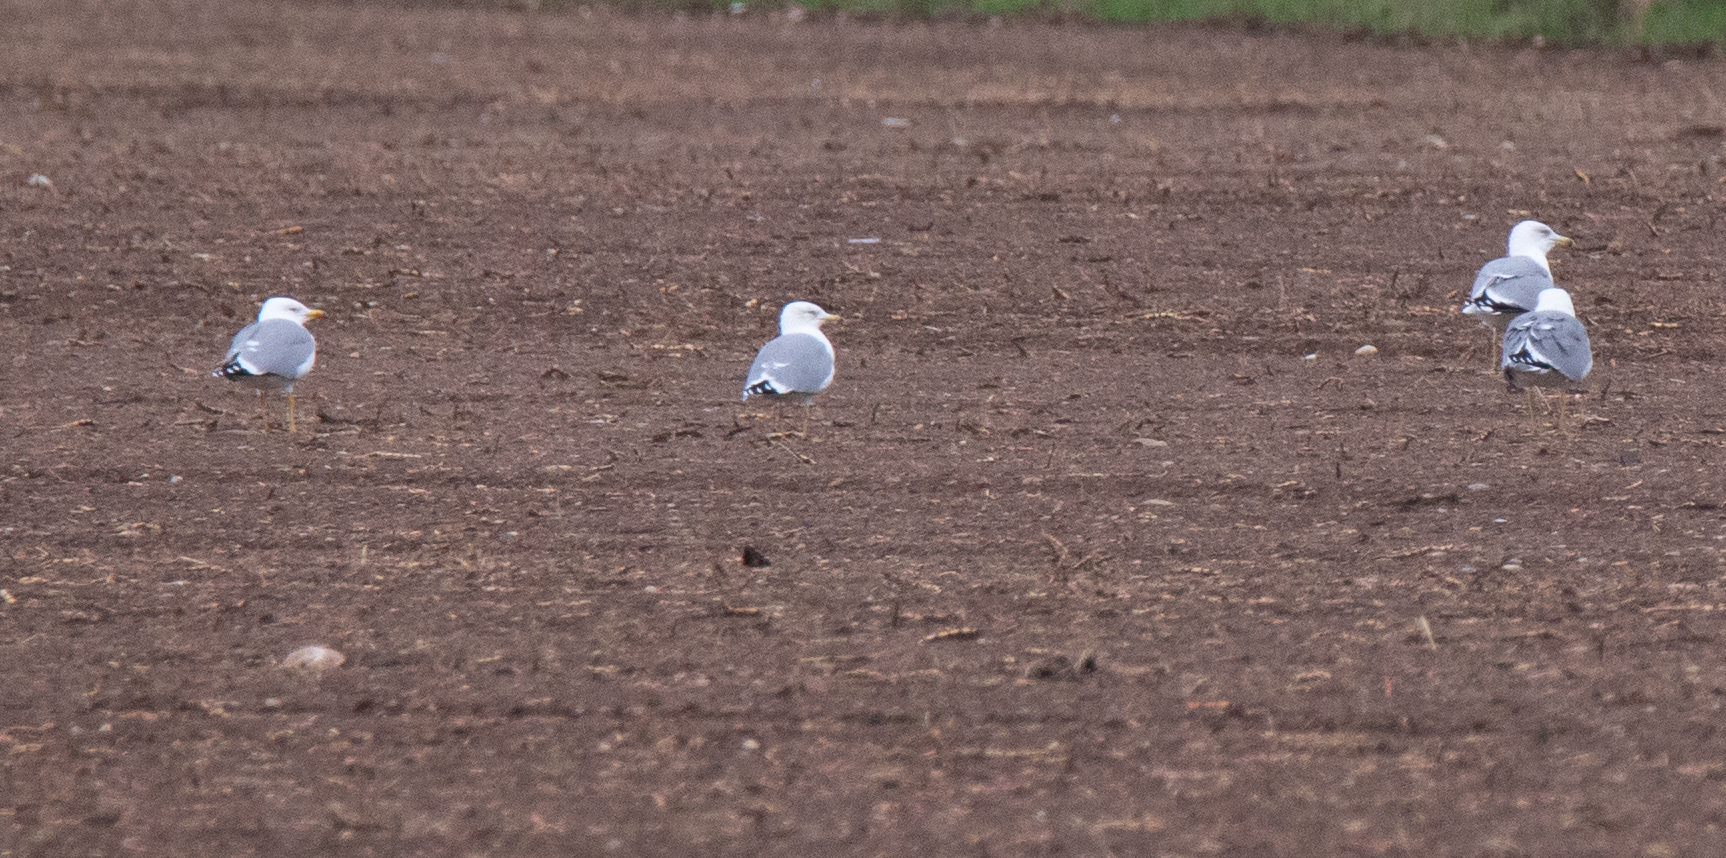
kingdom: Animalia
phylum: Chordata
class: Aves
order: Charadriiformes
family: Laridae
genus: Larus
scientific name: Larus michahellis
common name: Yellow-legged gull
